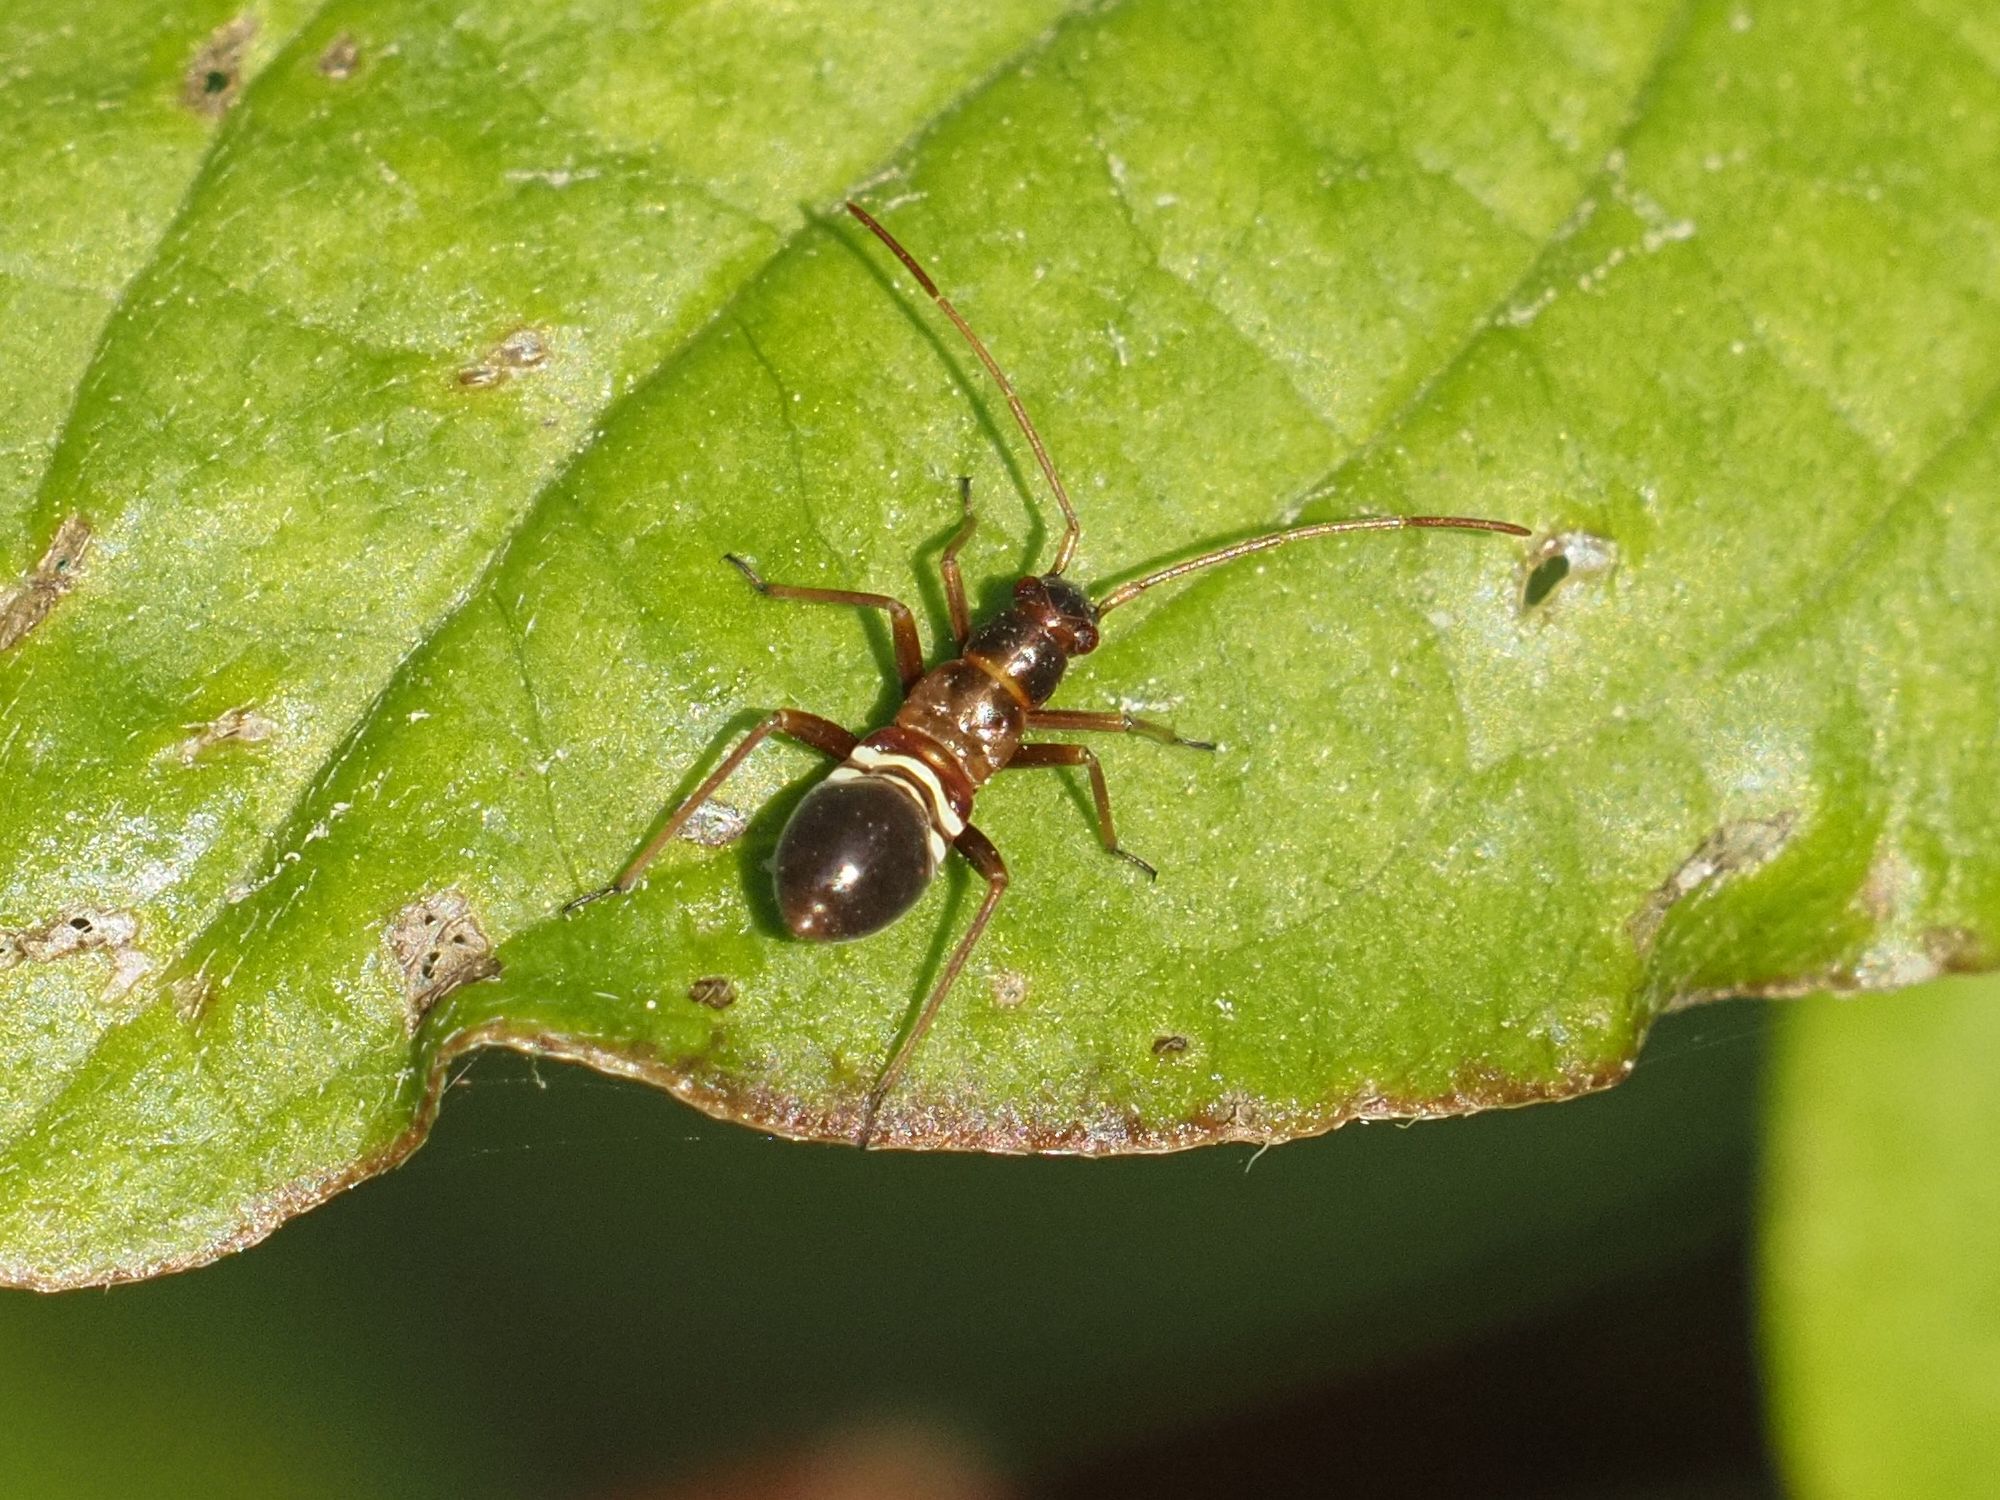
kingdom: Animalia
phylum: Arthropoda
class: Insecta
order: Hemiptera
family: Miridae
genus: Miris
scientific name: Miris striatus
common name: Fine streaked bugkin
